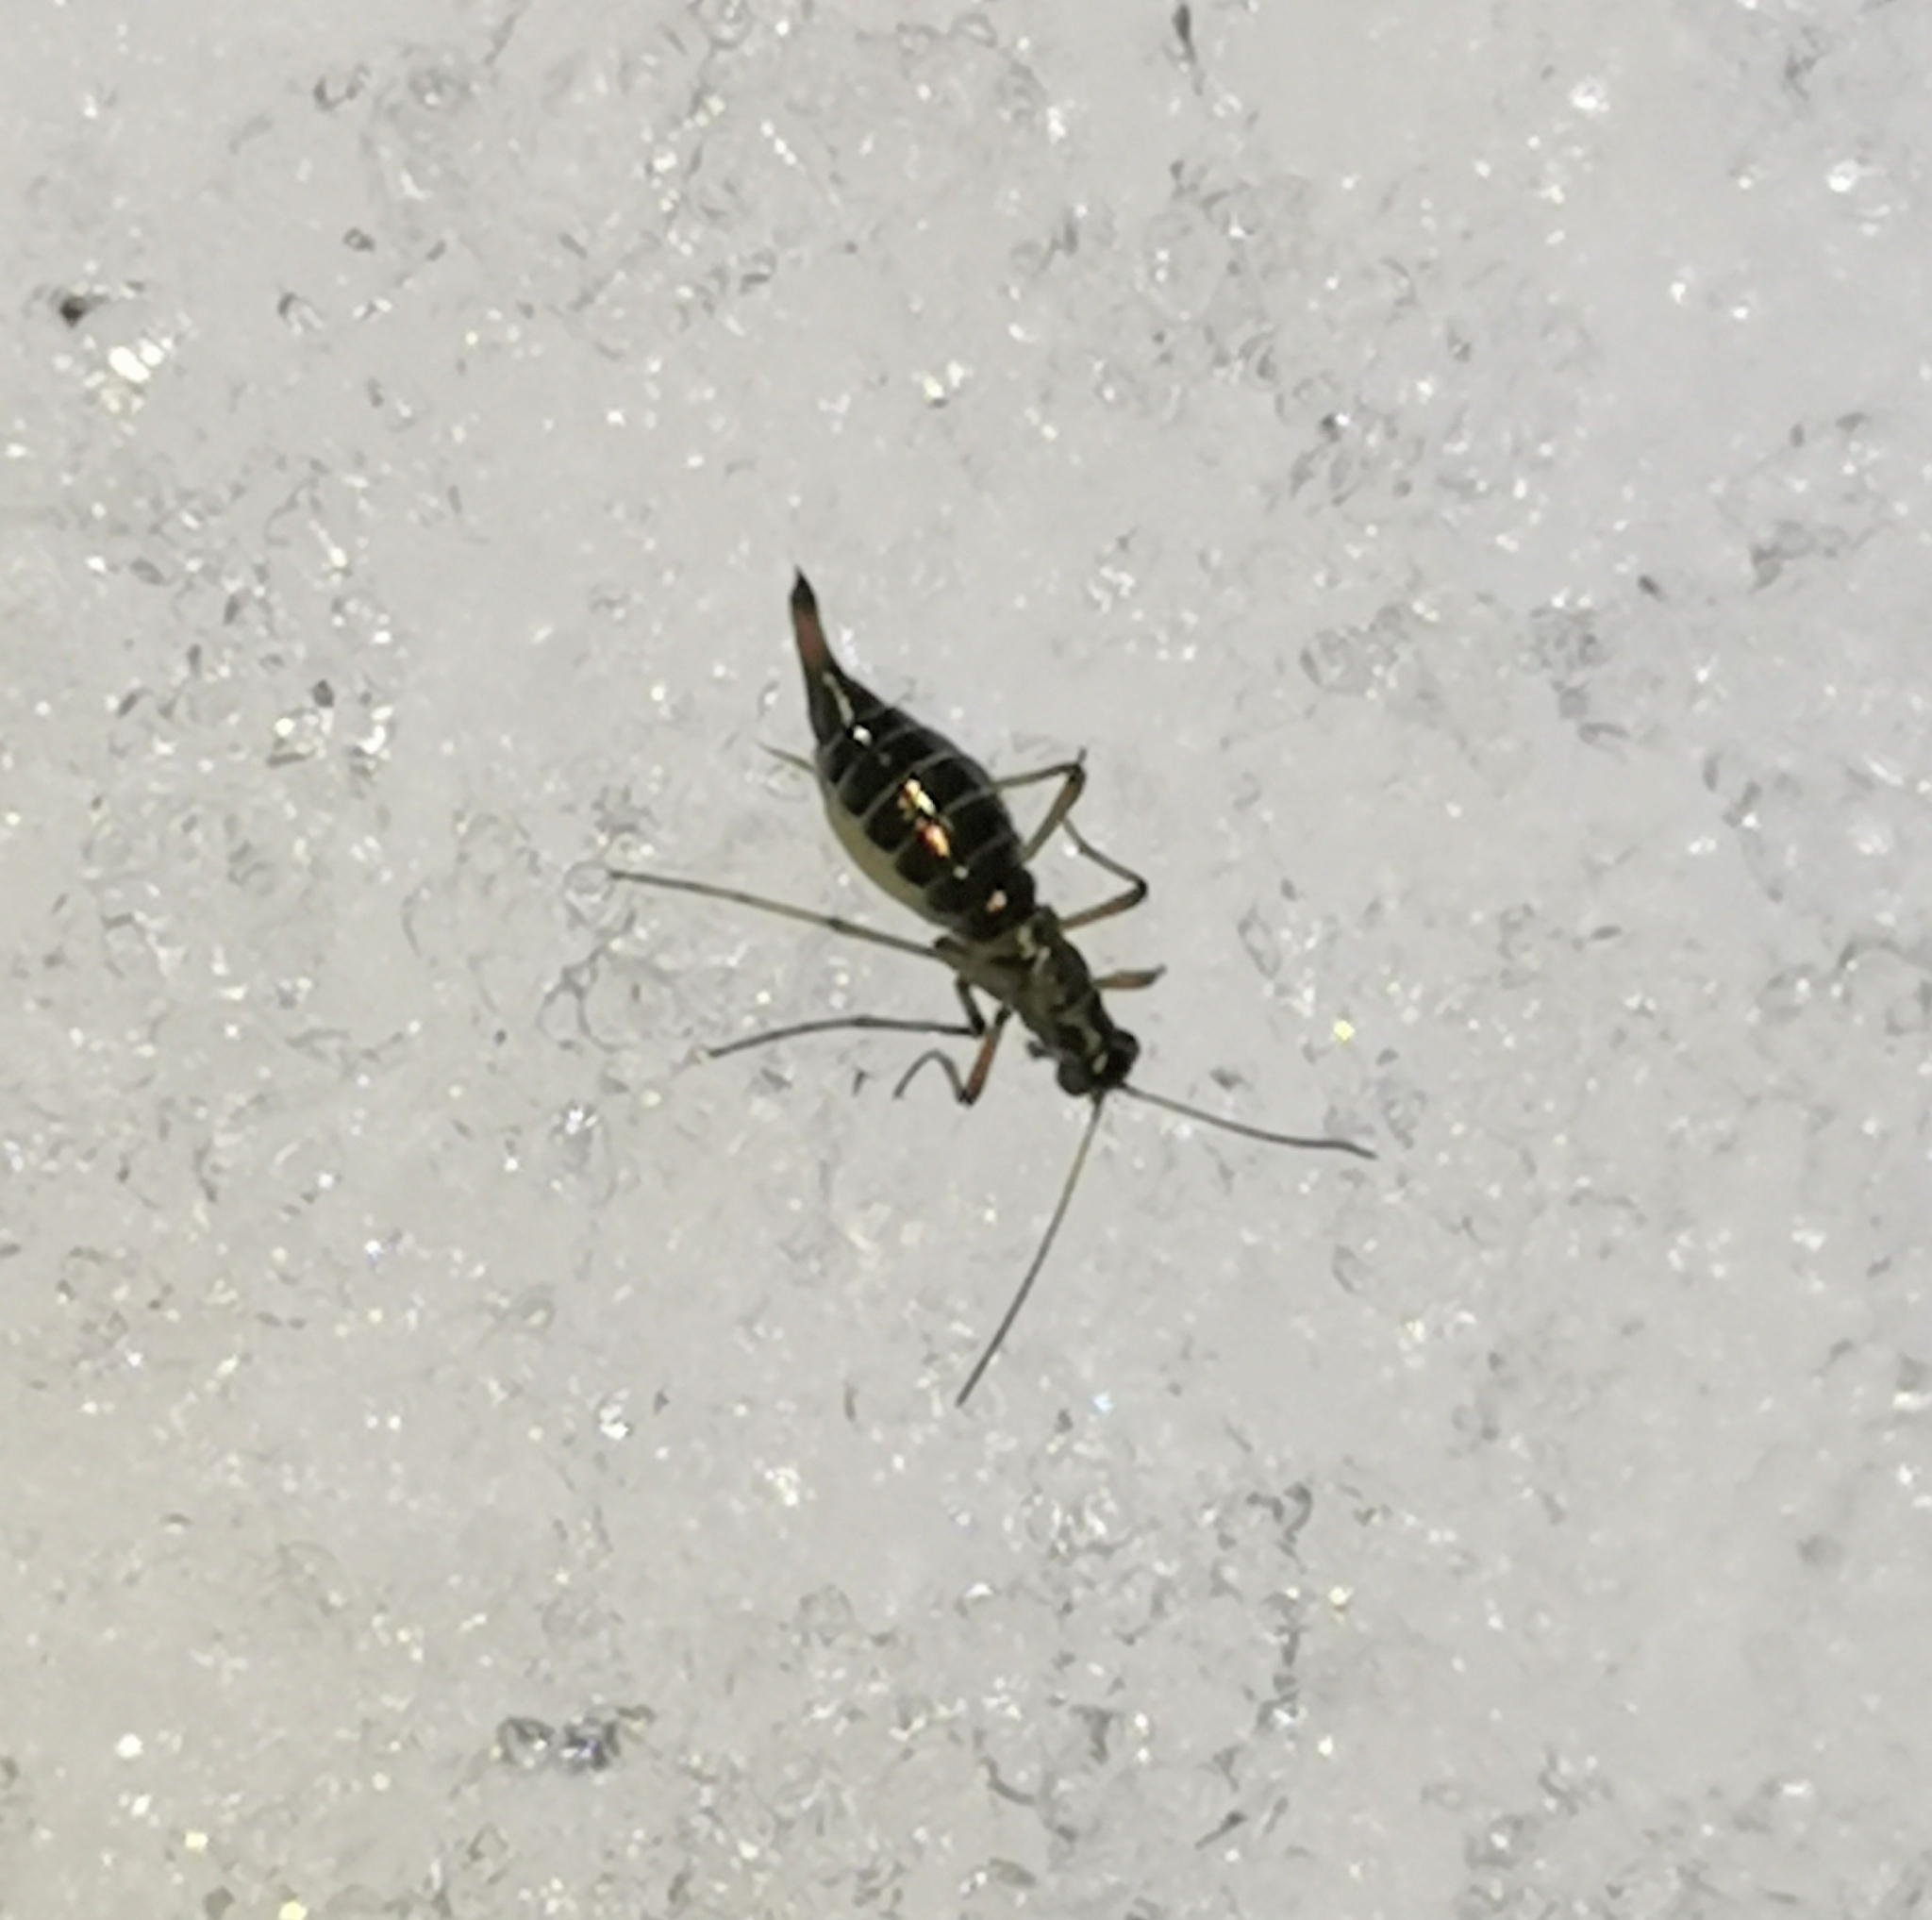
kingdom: Animalia
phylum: Arthropoda
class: Insecta
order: Mecoptera
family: Boreidae
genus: Boreus
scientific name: Boreus westwoodi
